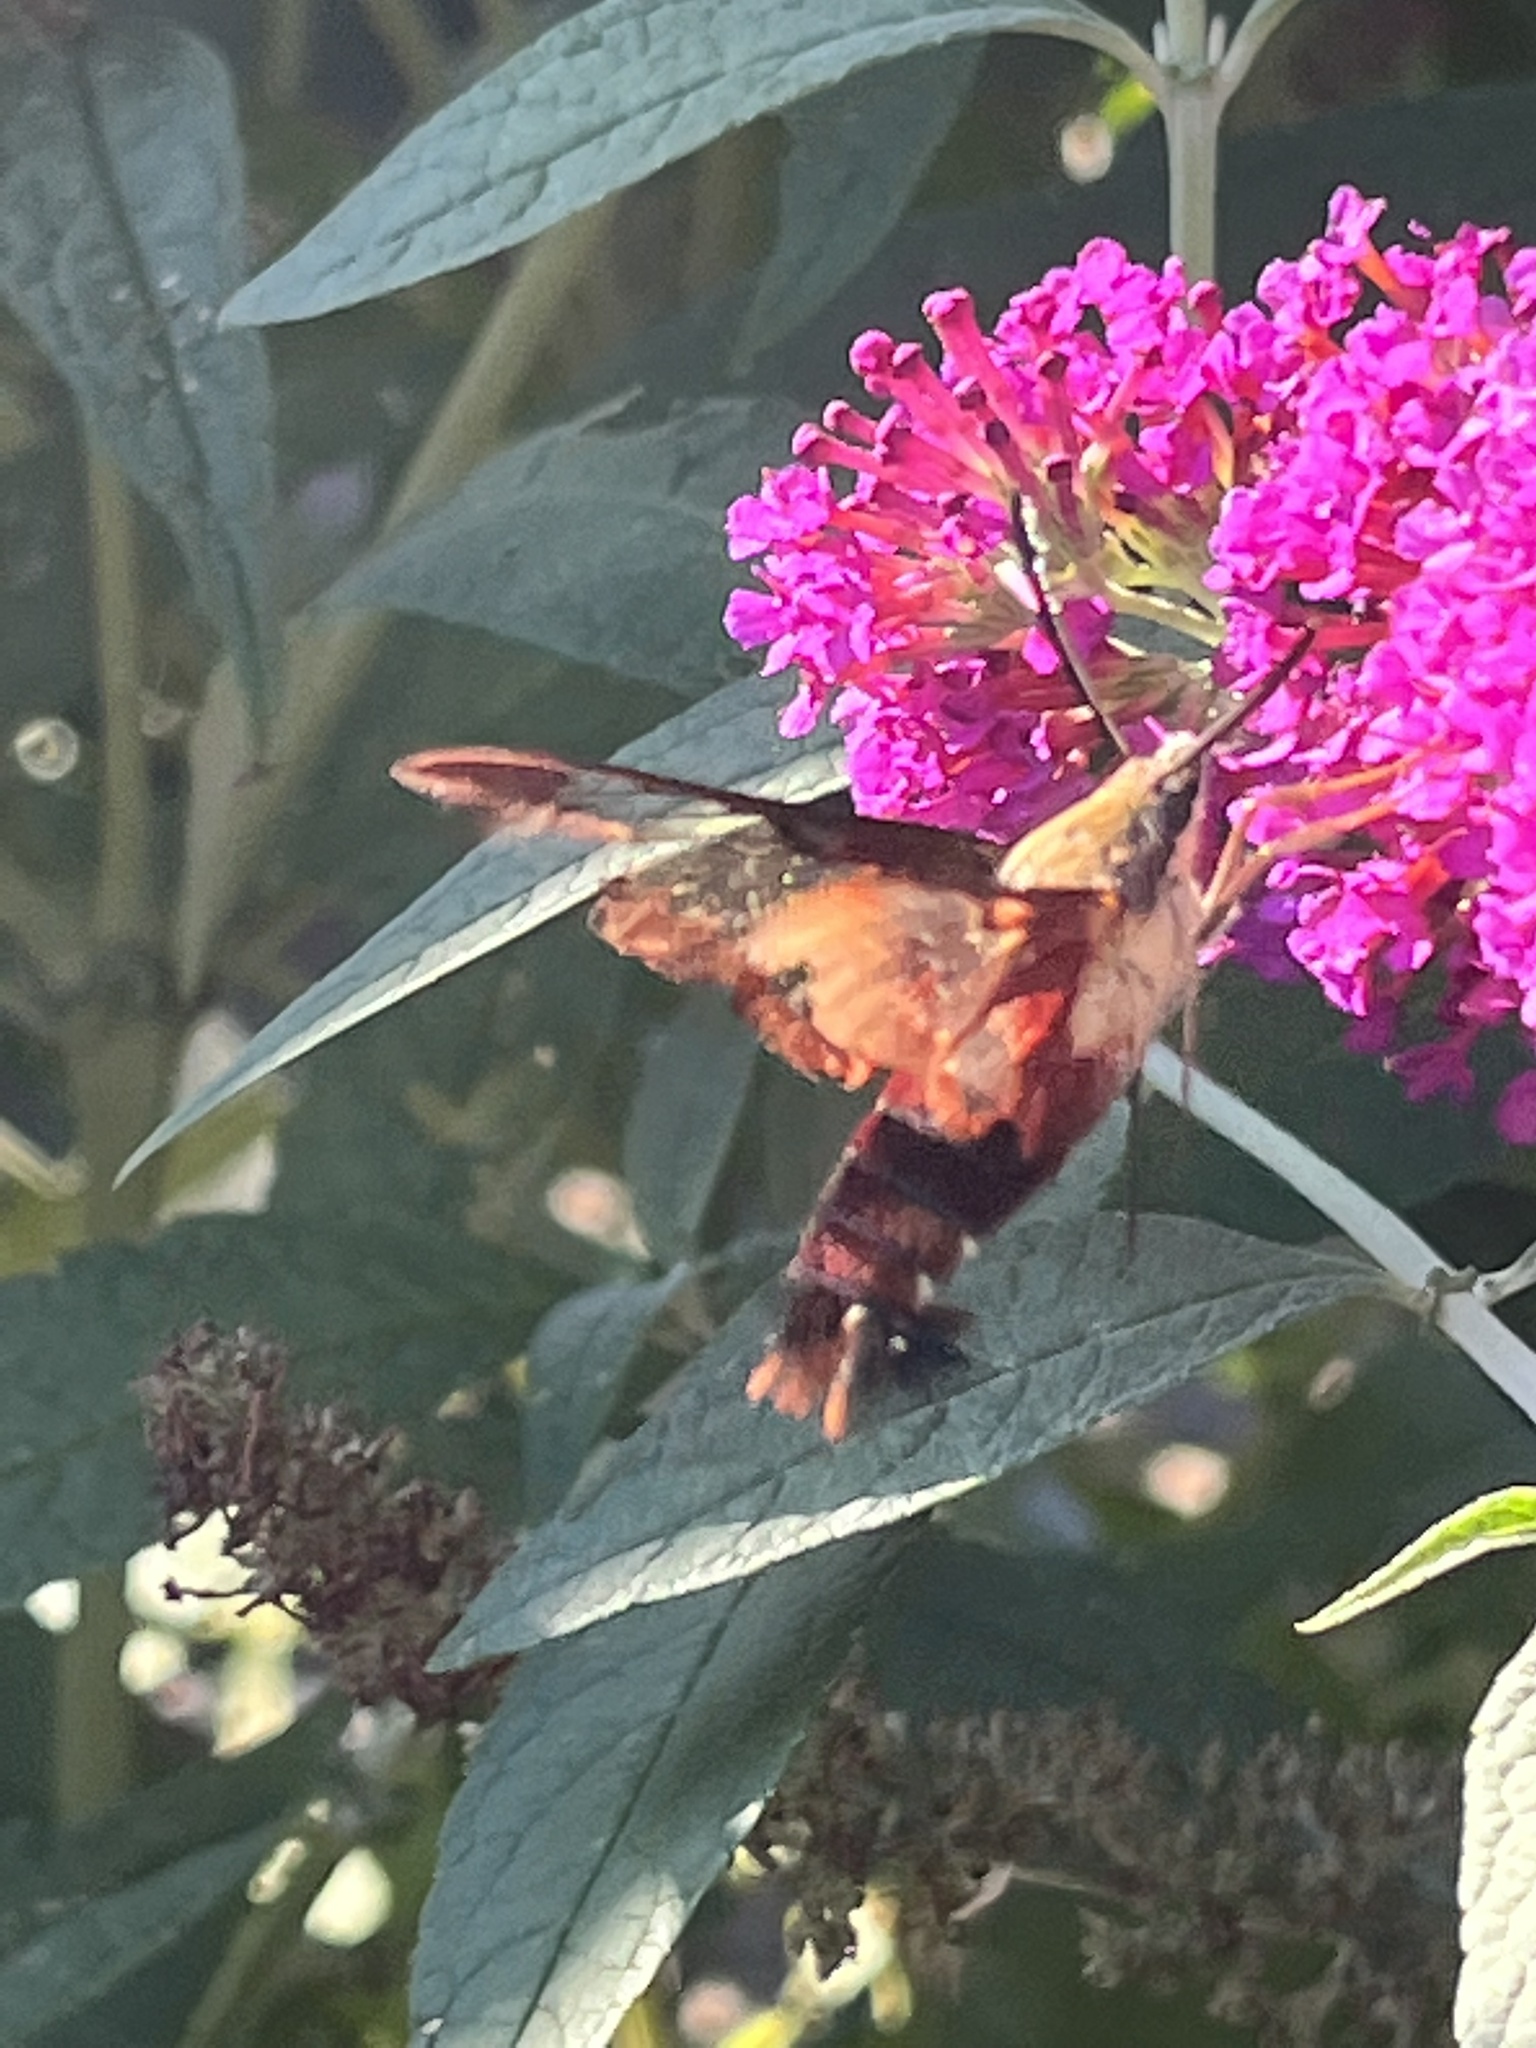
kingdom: Animalia
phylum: Arthropoda
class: Insecta
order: Lepidoptera
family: Sphingidae
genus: Hemaris
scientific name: Hemaris thysbe
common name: Common clear-wing
